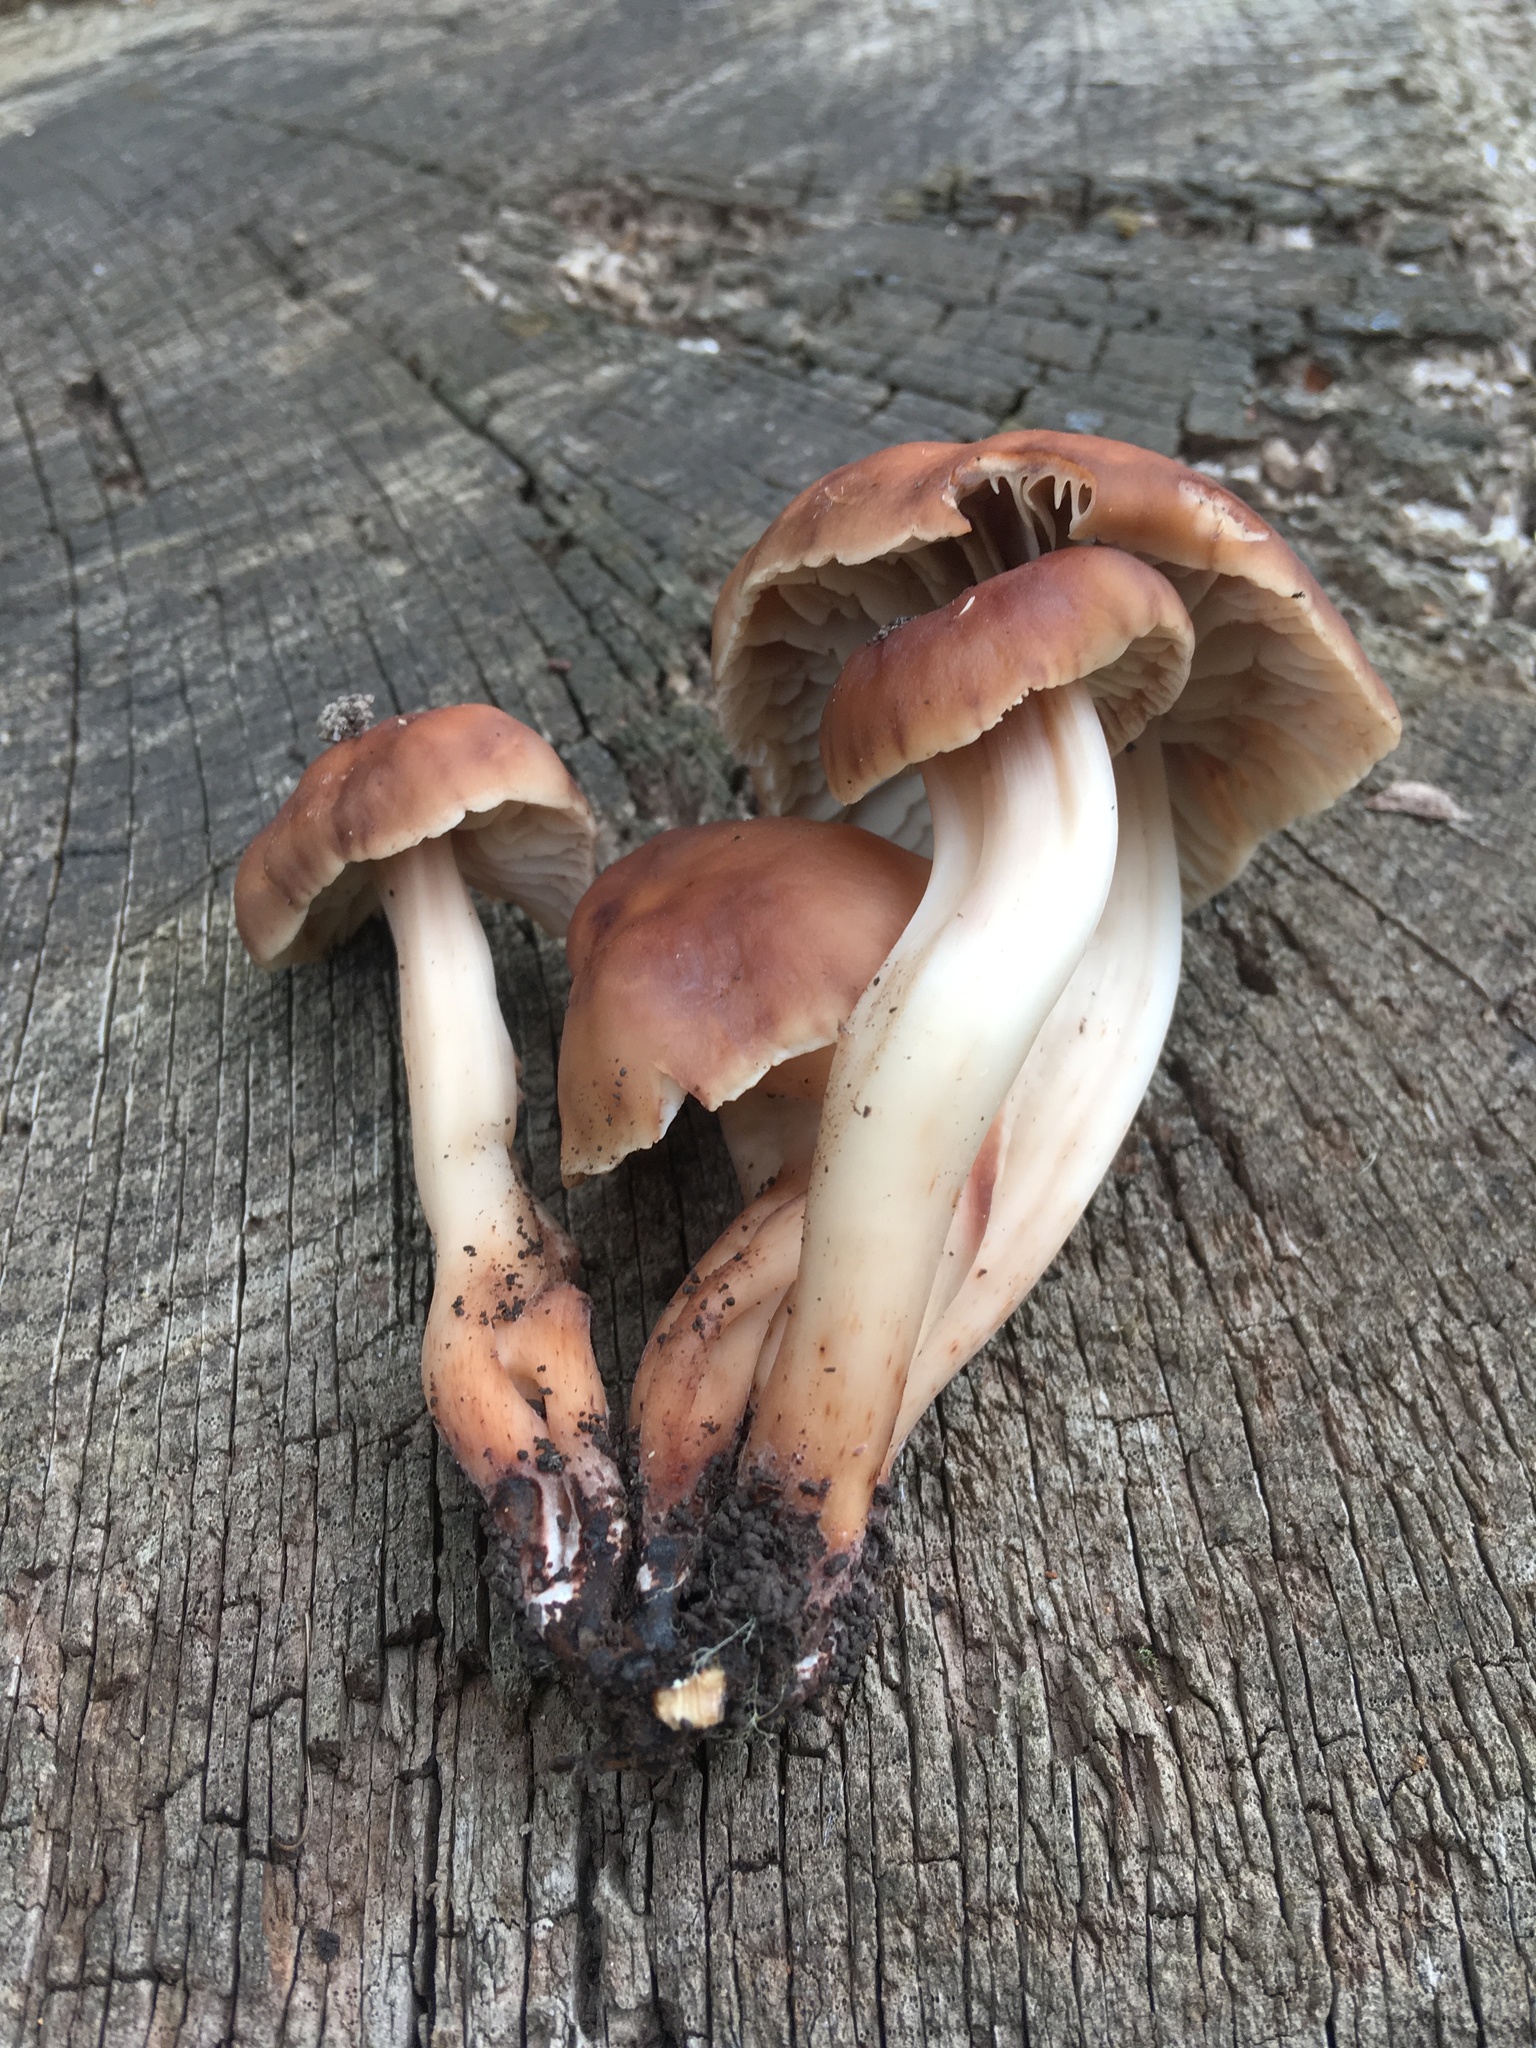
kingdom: Fungi
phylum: Basidiomycota
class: Agaricomycetes
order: Agaricales
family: Omphalotaceae
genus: Gymnopus
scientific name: Gymnopus fusipes
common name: Spindle shank
